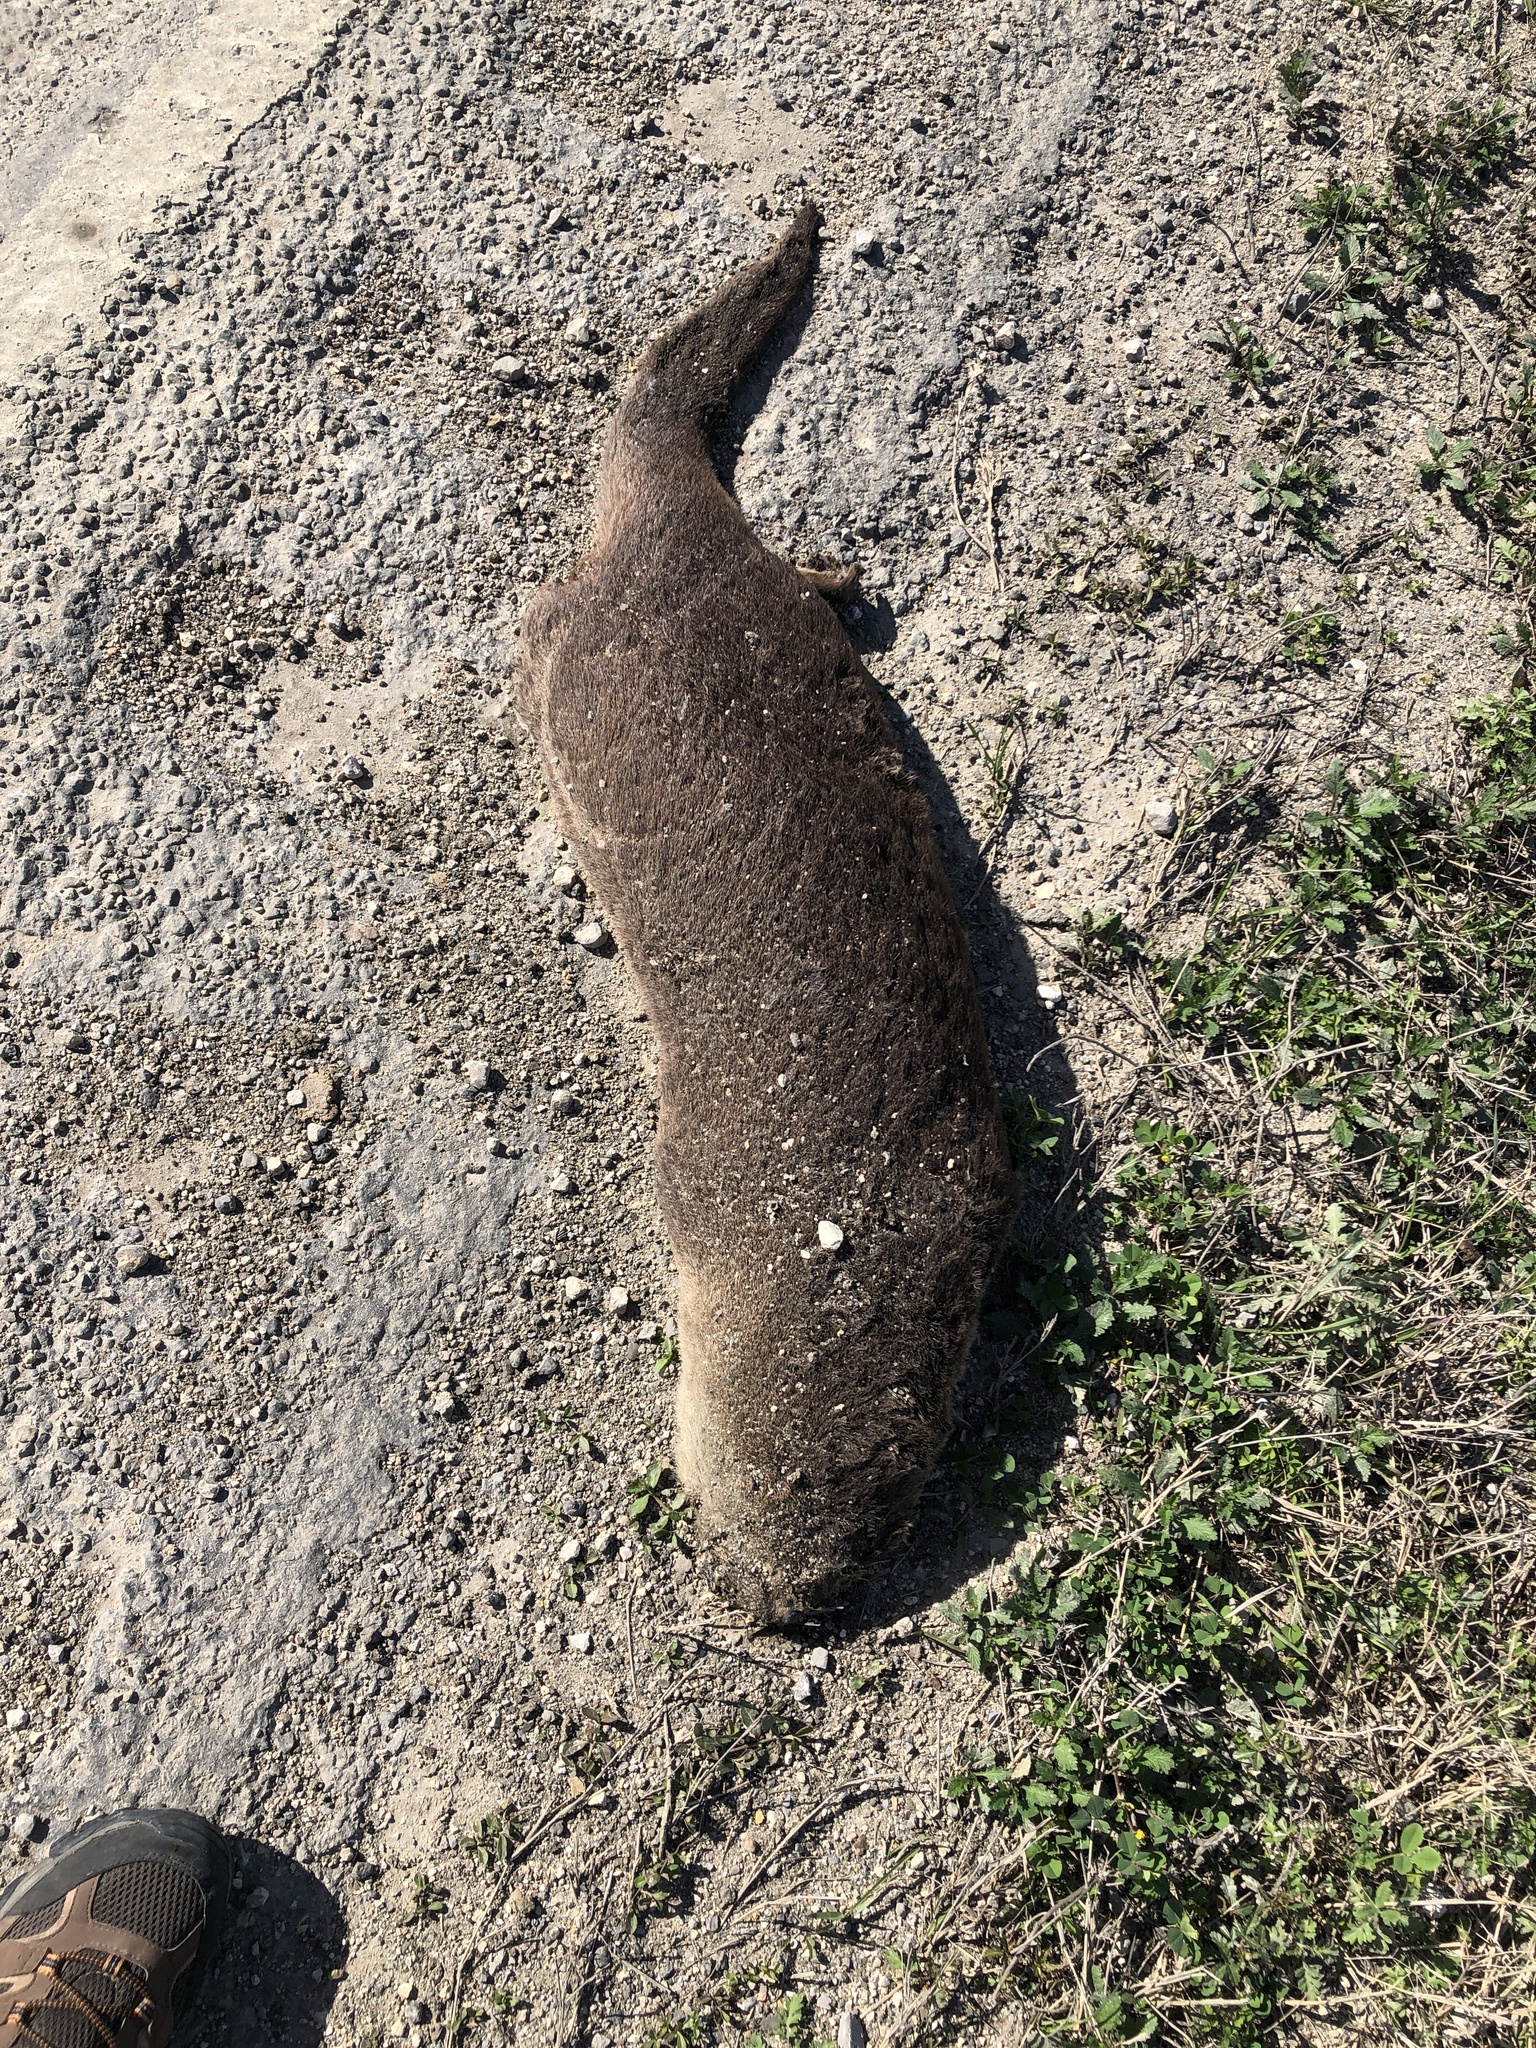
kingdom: Animalia
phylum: Chordata
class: Mammalia
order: Carnivora
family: Mustelidae
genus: Lontra
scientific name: Lontra canadensis
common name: North american river otter
